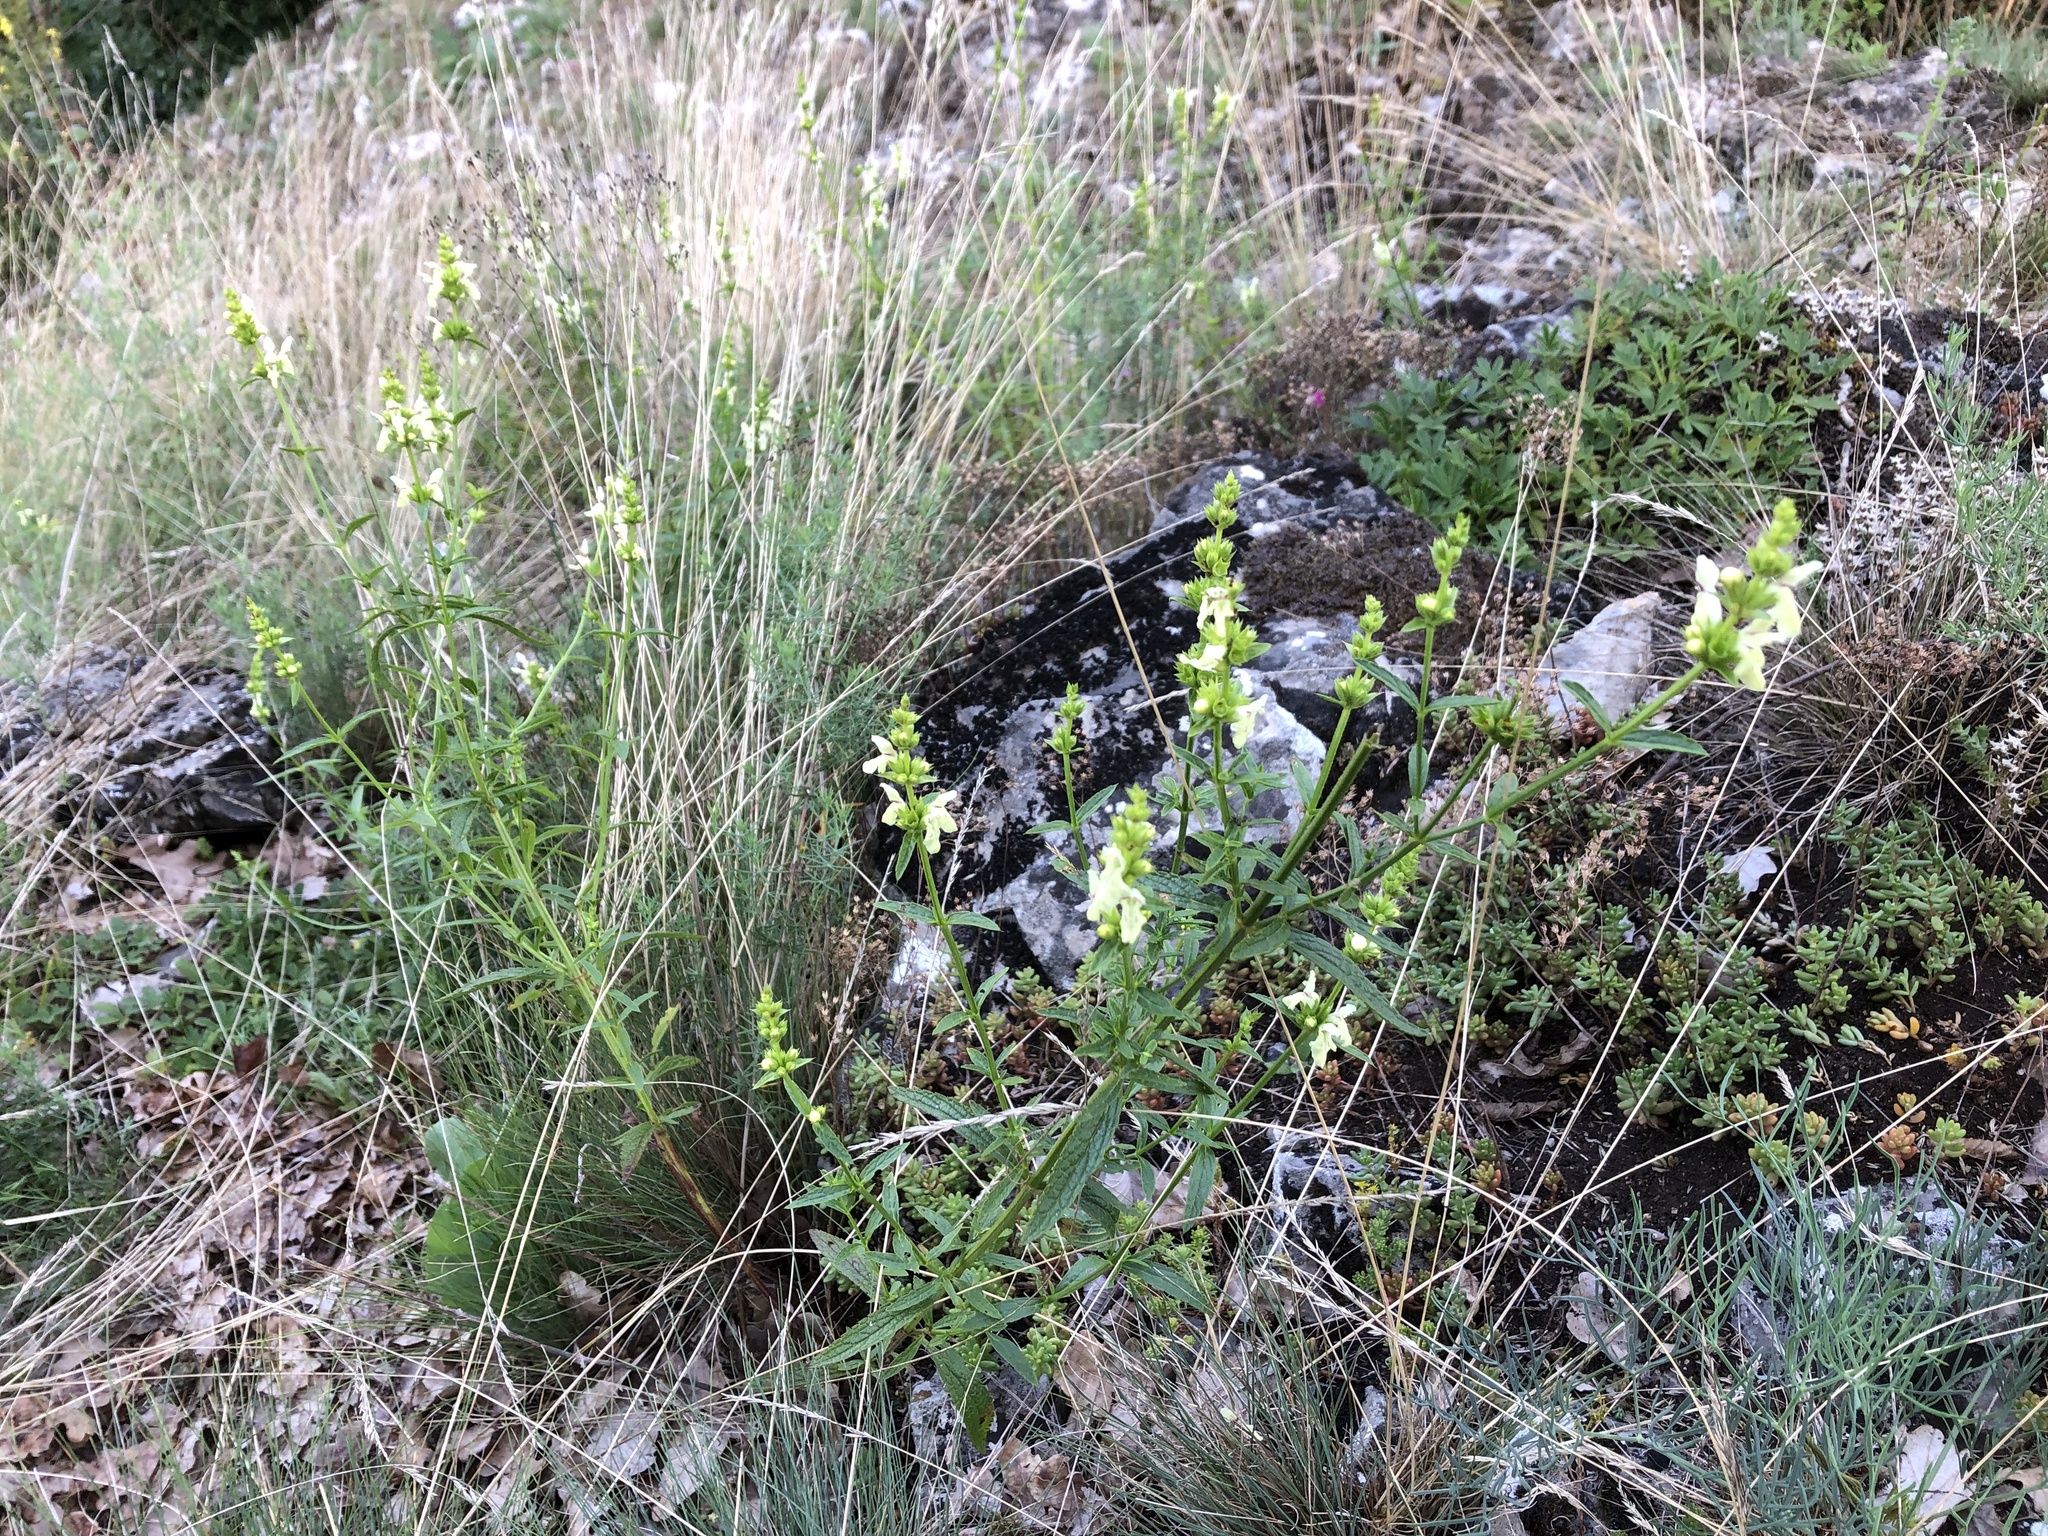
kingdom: Plantae
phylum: Tracheophyta
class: Magnoliopsida
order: Lamiales
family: Lamiaceae
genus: Stachys
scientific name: Stachys recta
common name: Perennial yellow-woundwort
